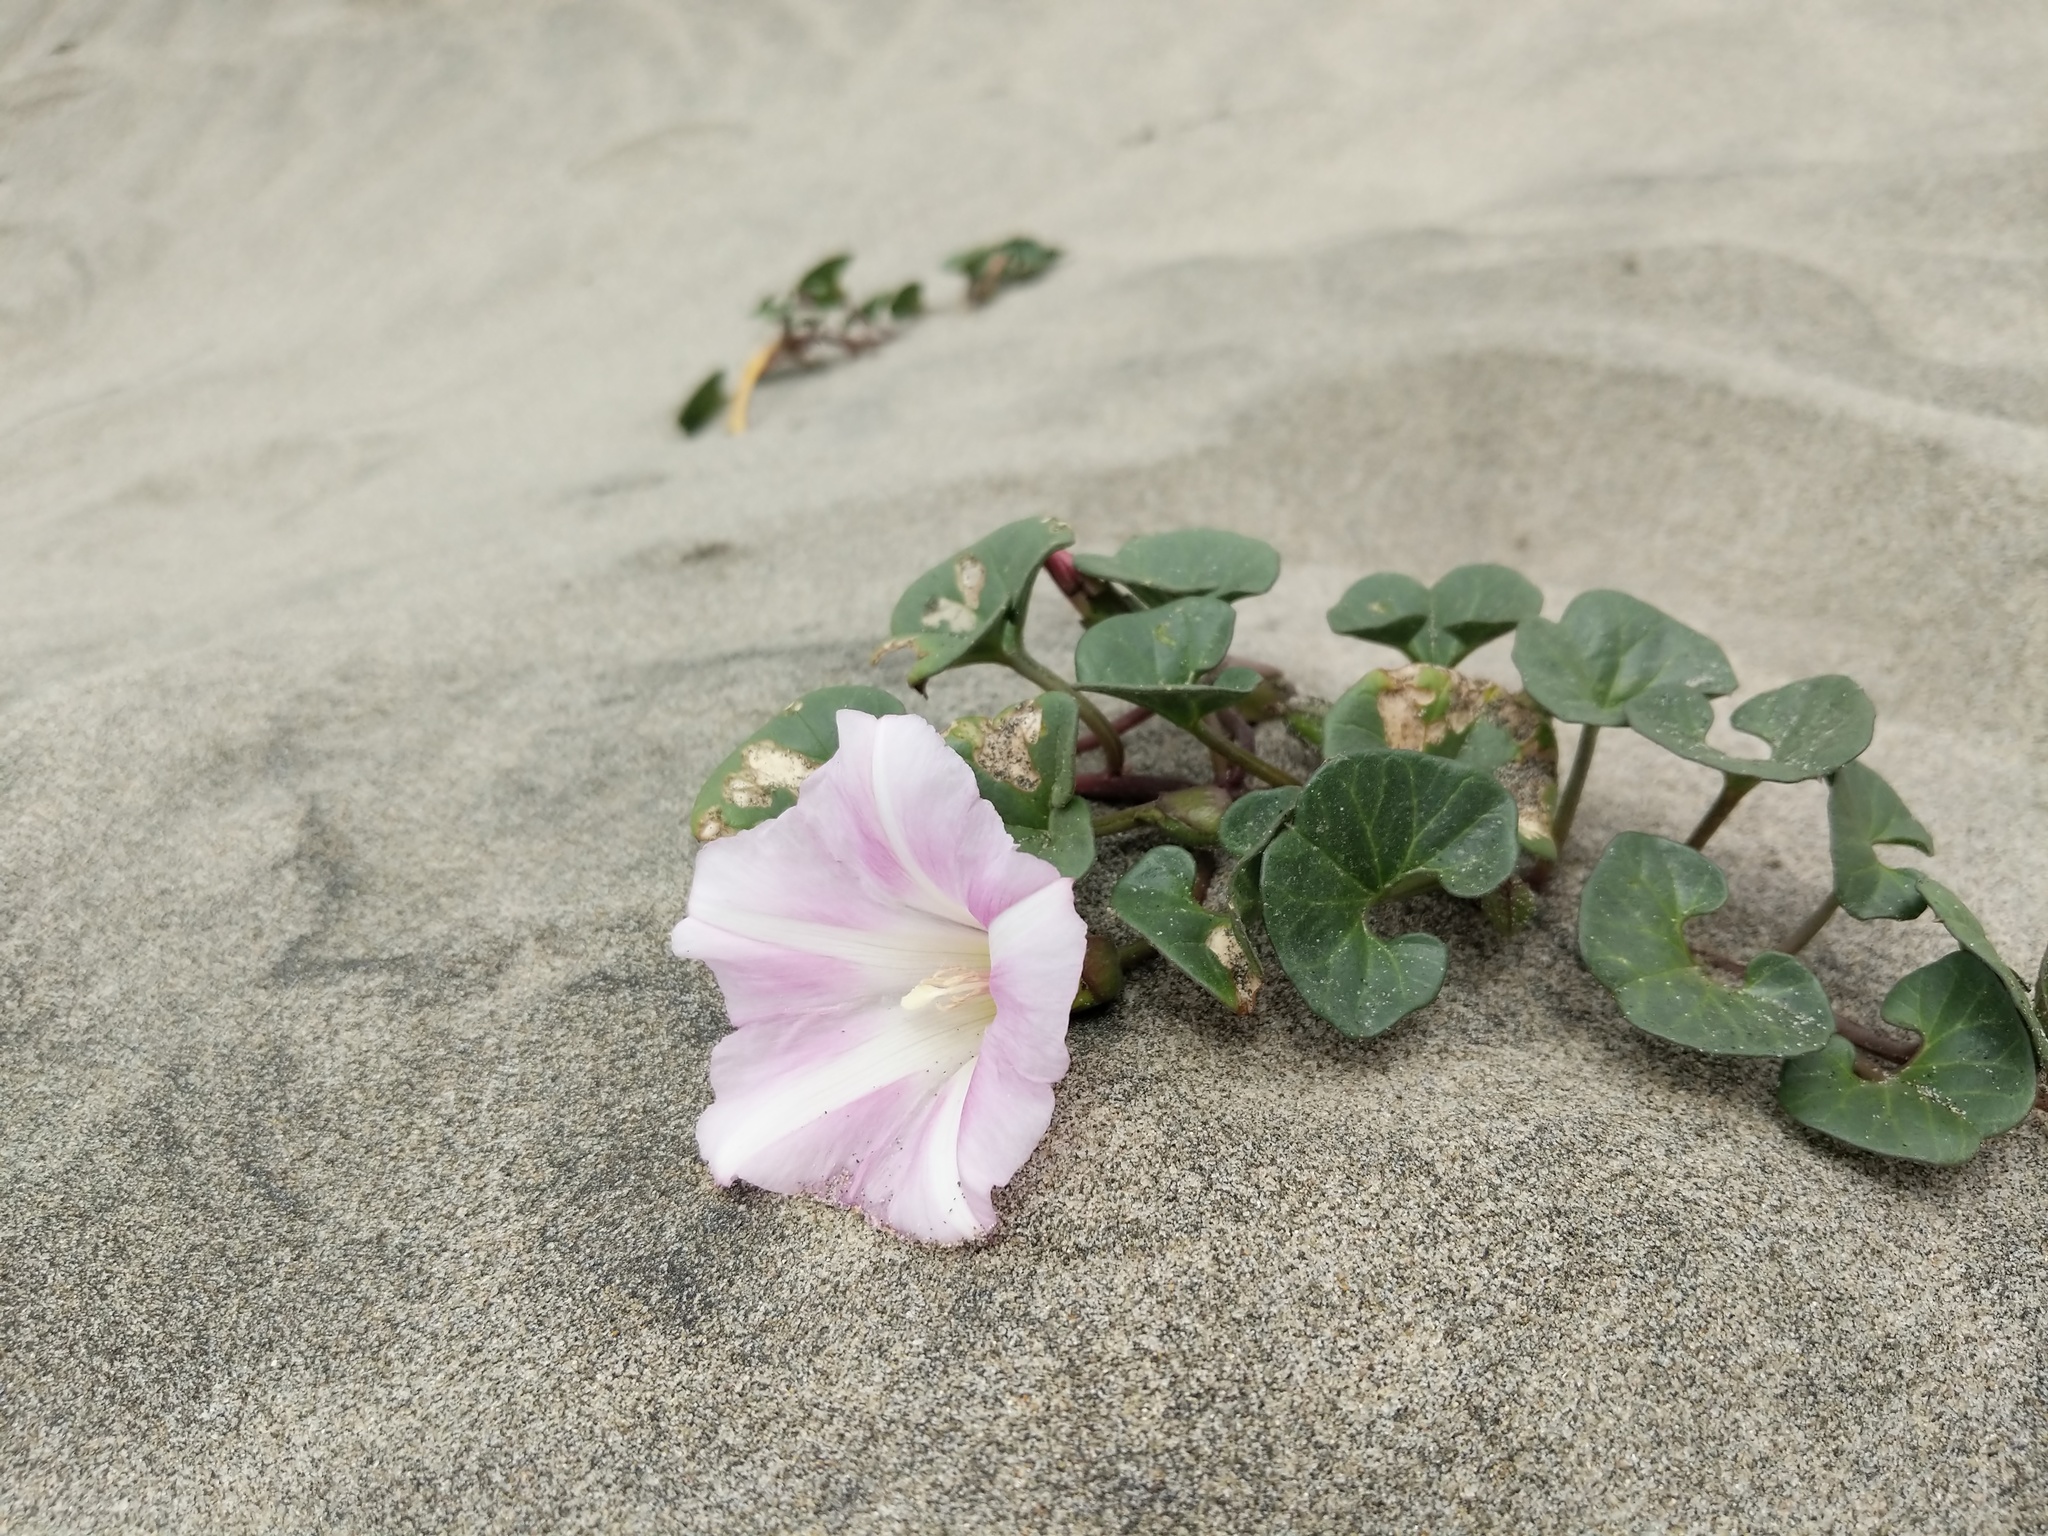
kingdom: Plantae
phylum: Tracheophyta
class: Magnoliopsida
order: Solanales
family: Convolvulaceae
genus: Calystegia
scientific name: Calystegia soldanella
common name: Sea bindweed
